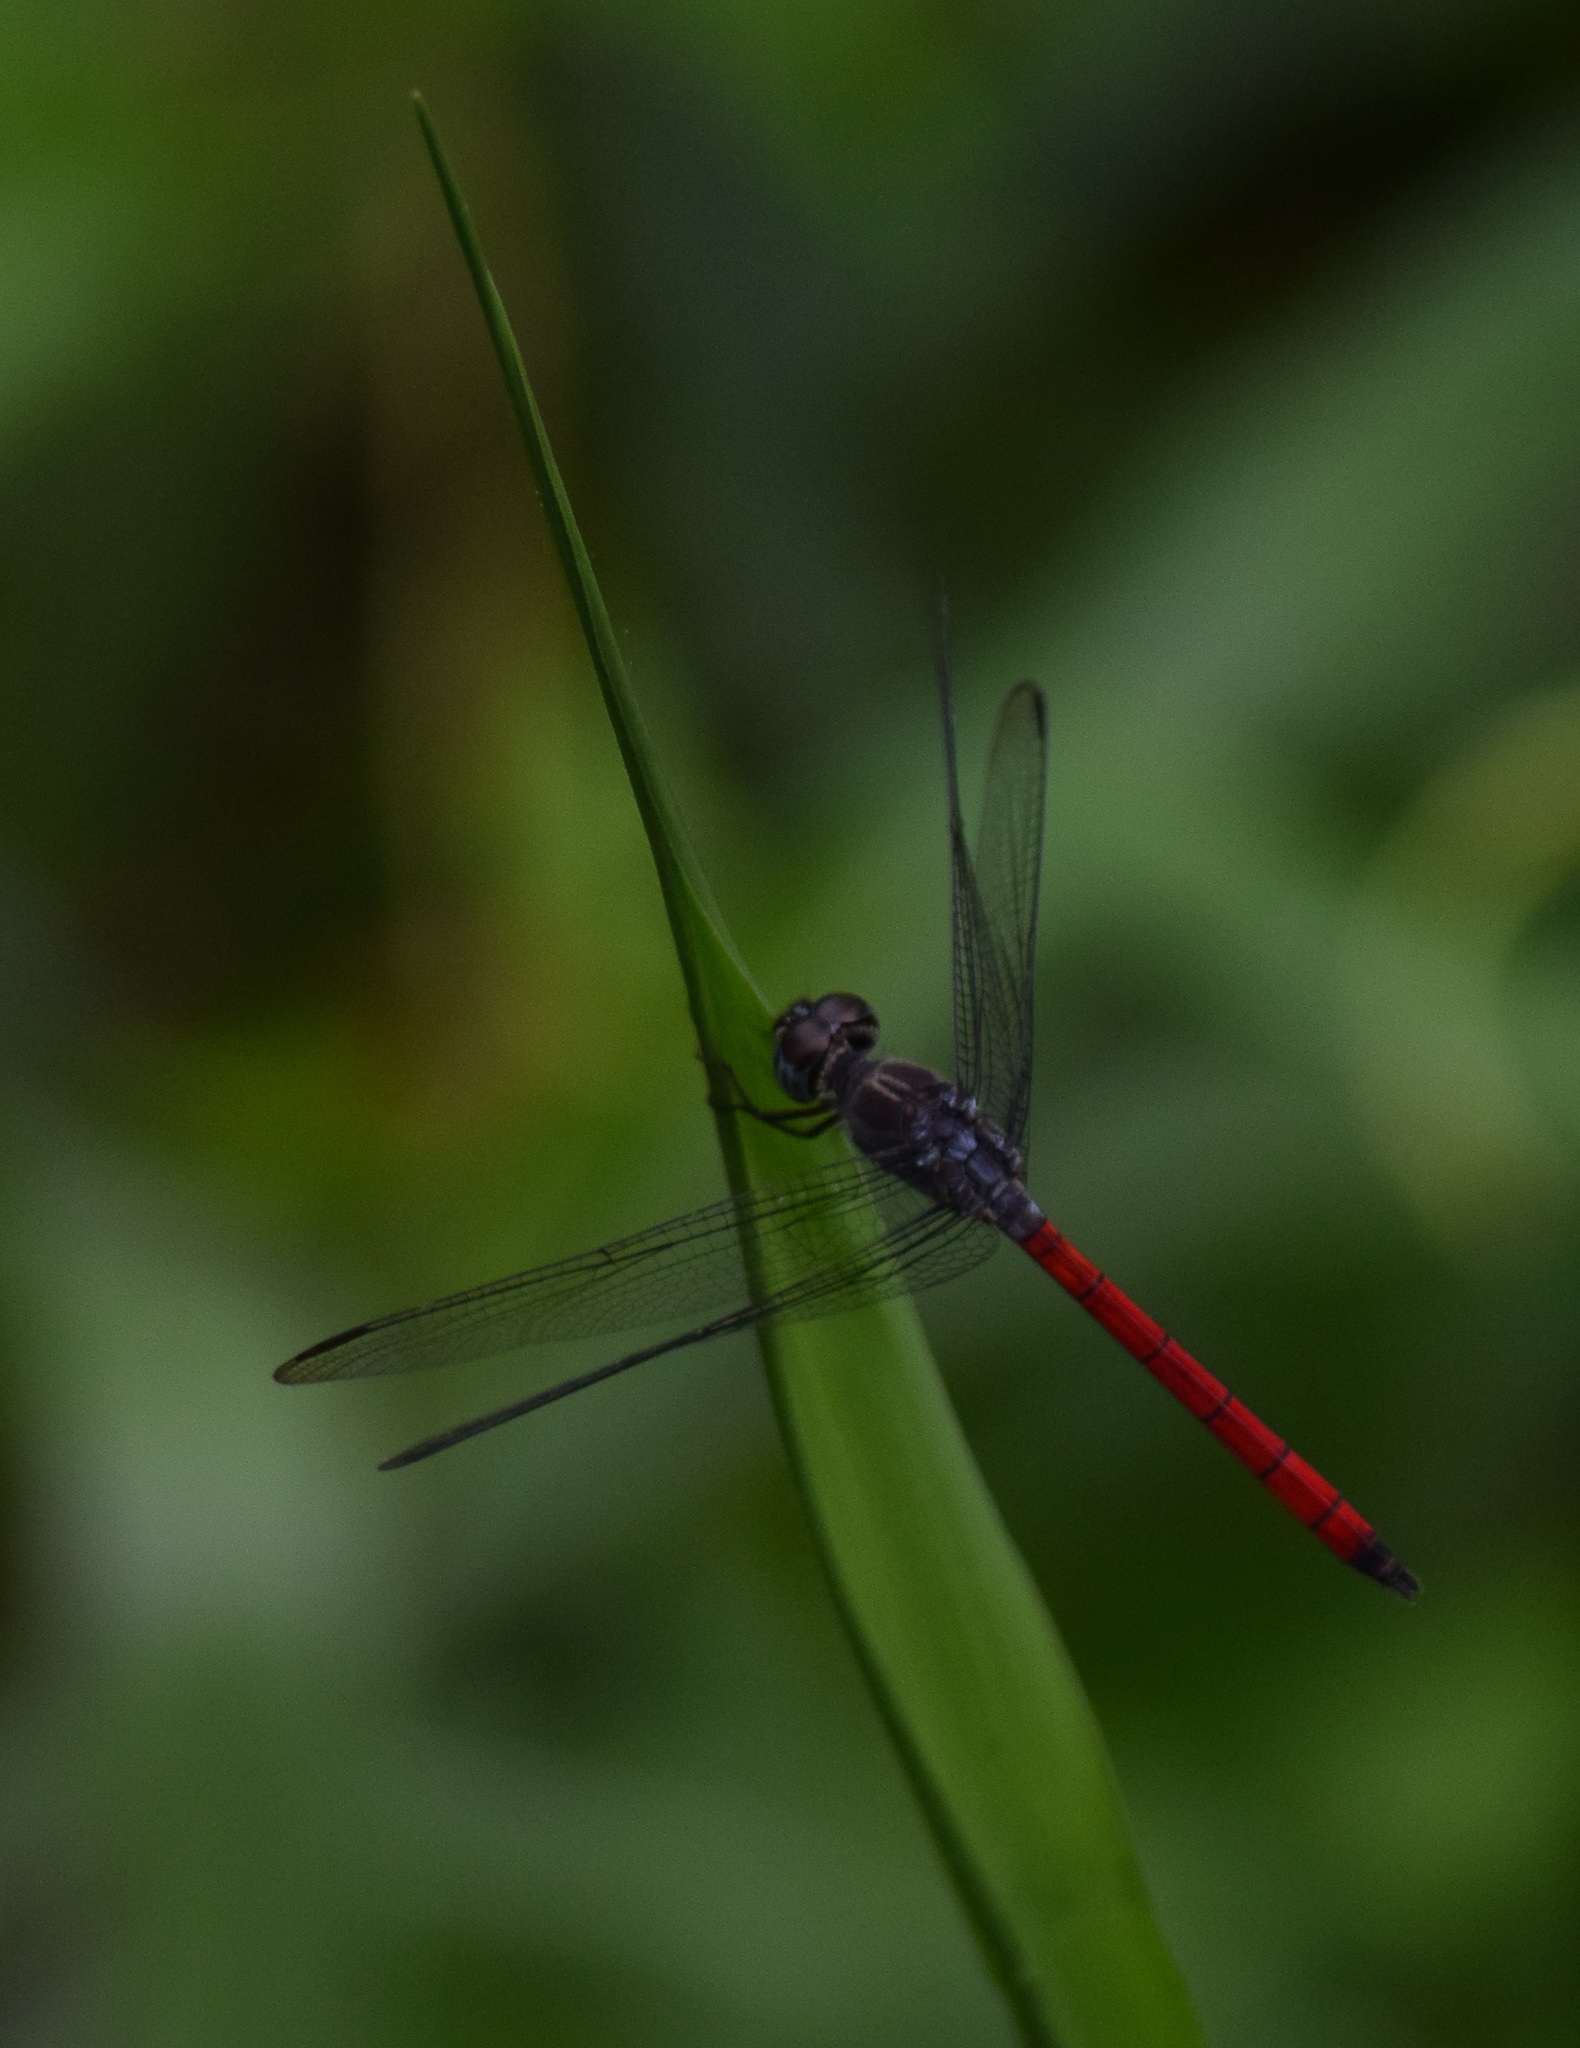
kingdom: Animalia
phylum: Arthropoda
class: Insecta
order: Odonata
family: Libellulidae
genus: Lathrecista
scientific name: Lathrecista asiatica
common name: Scarlet grenadier
